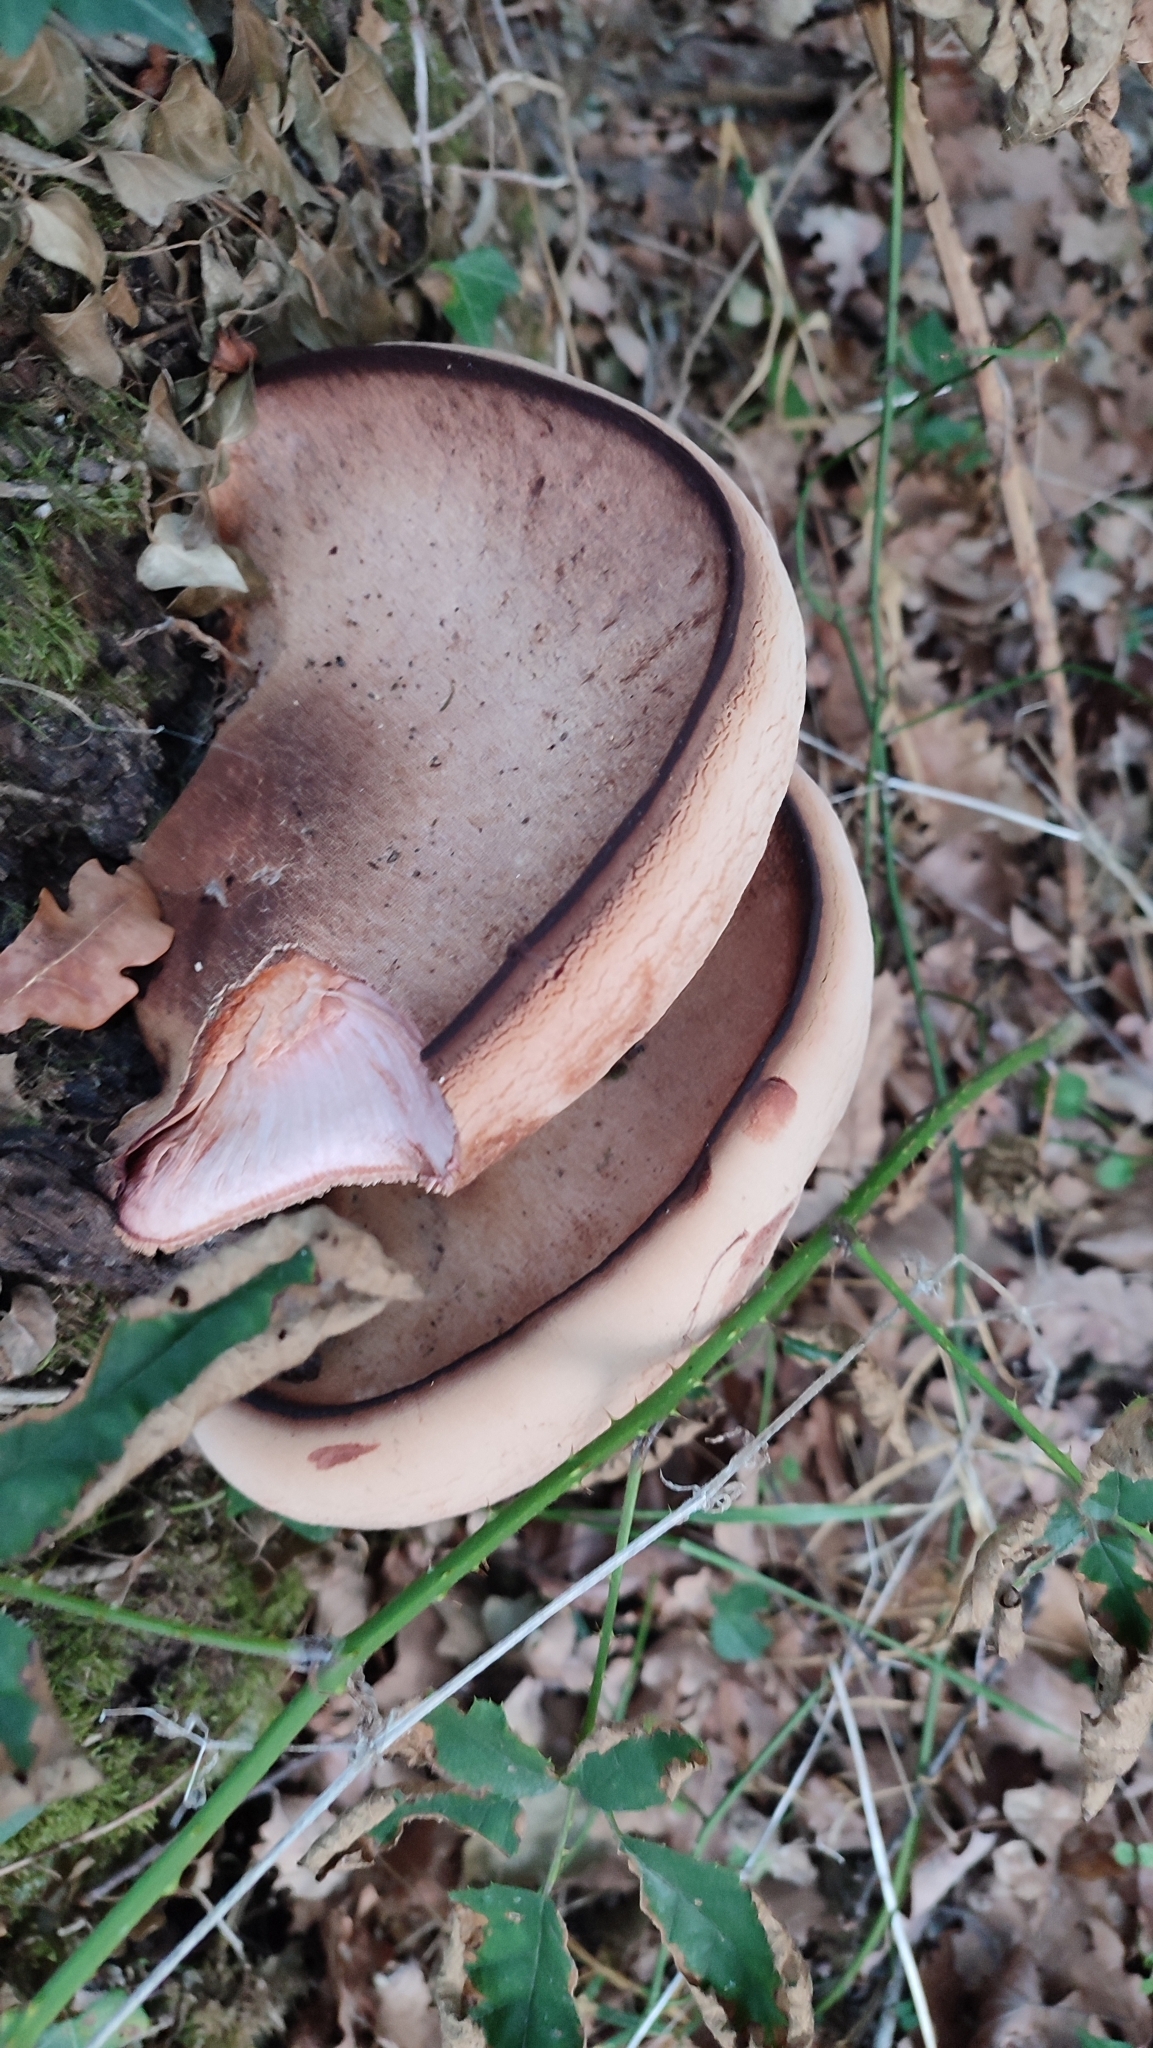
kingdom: Fungi
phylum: Basidiomycota
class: Agaricomycetes
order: Agaricales
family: Fistulinaceae
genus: Fistulina
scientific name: Fistulina hepatica
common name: Beef-steak fungus
